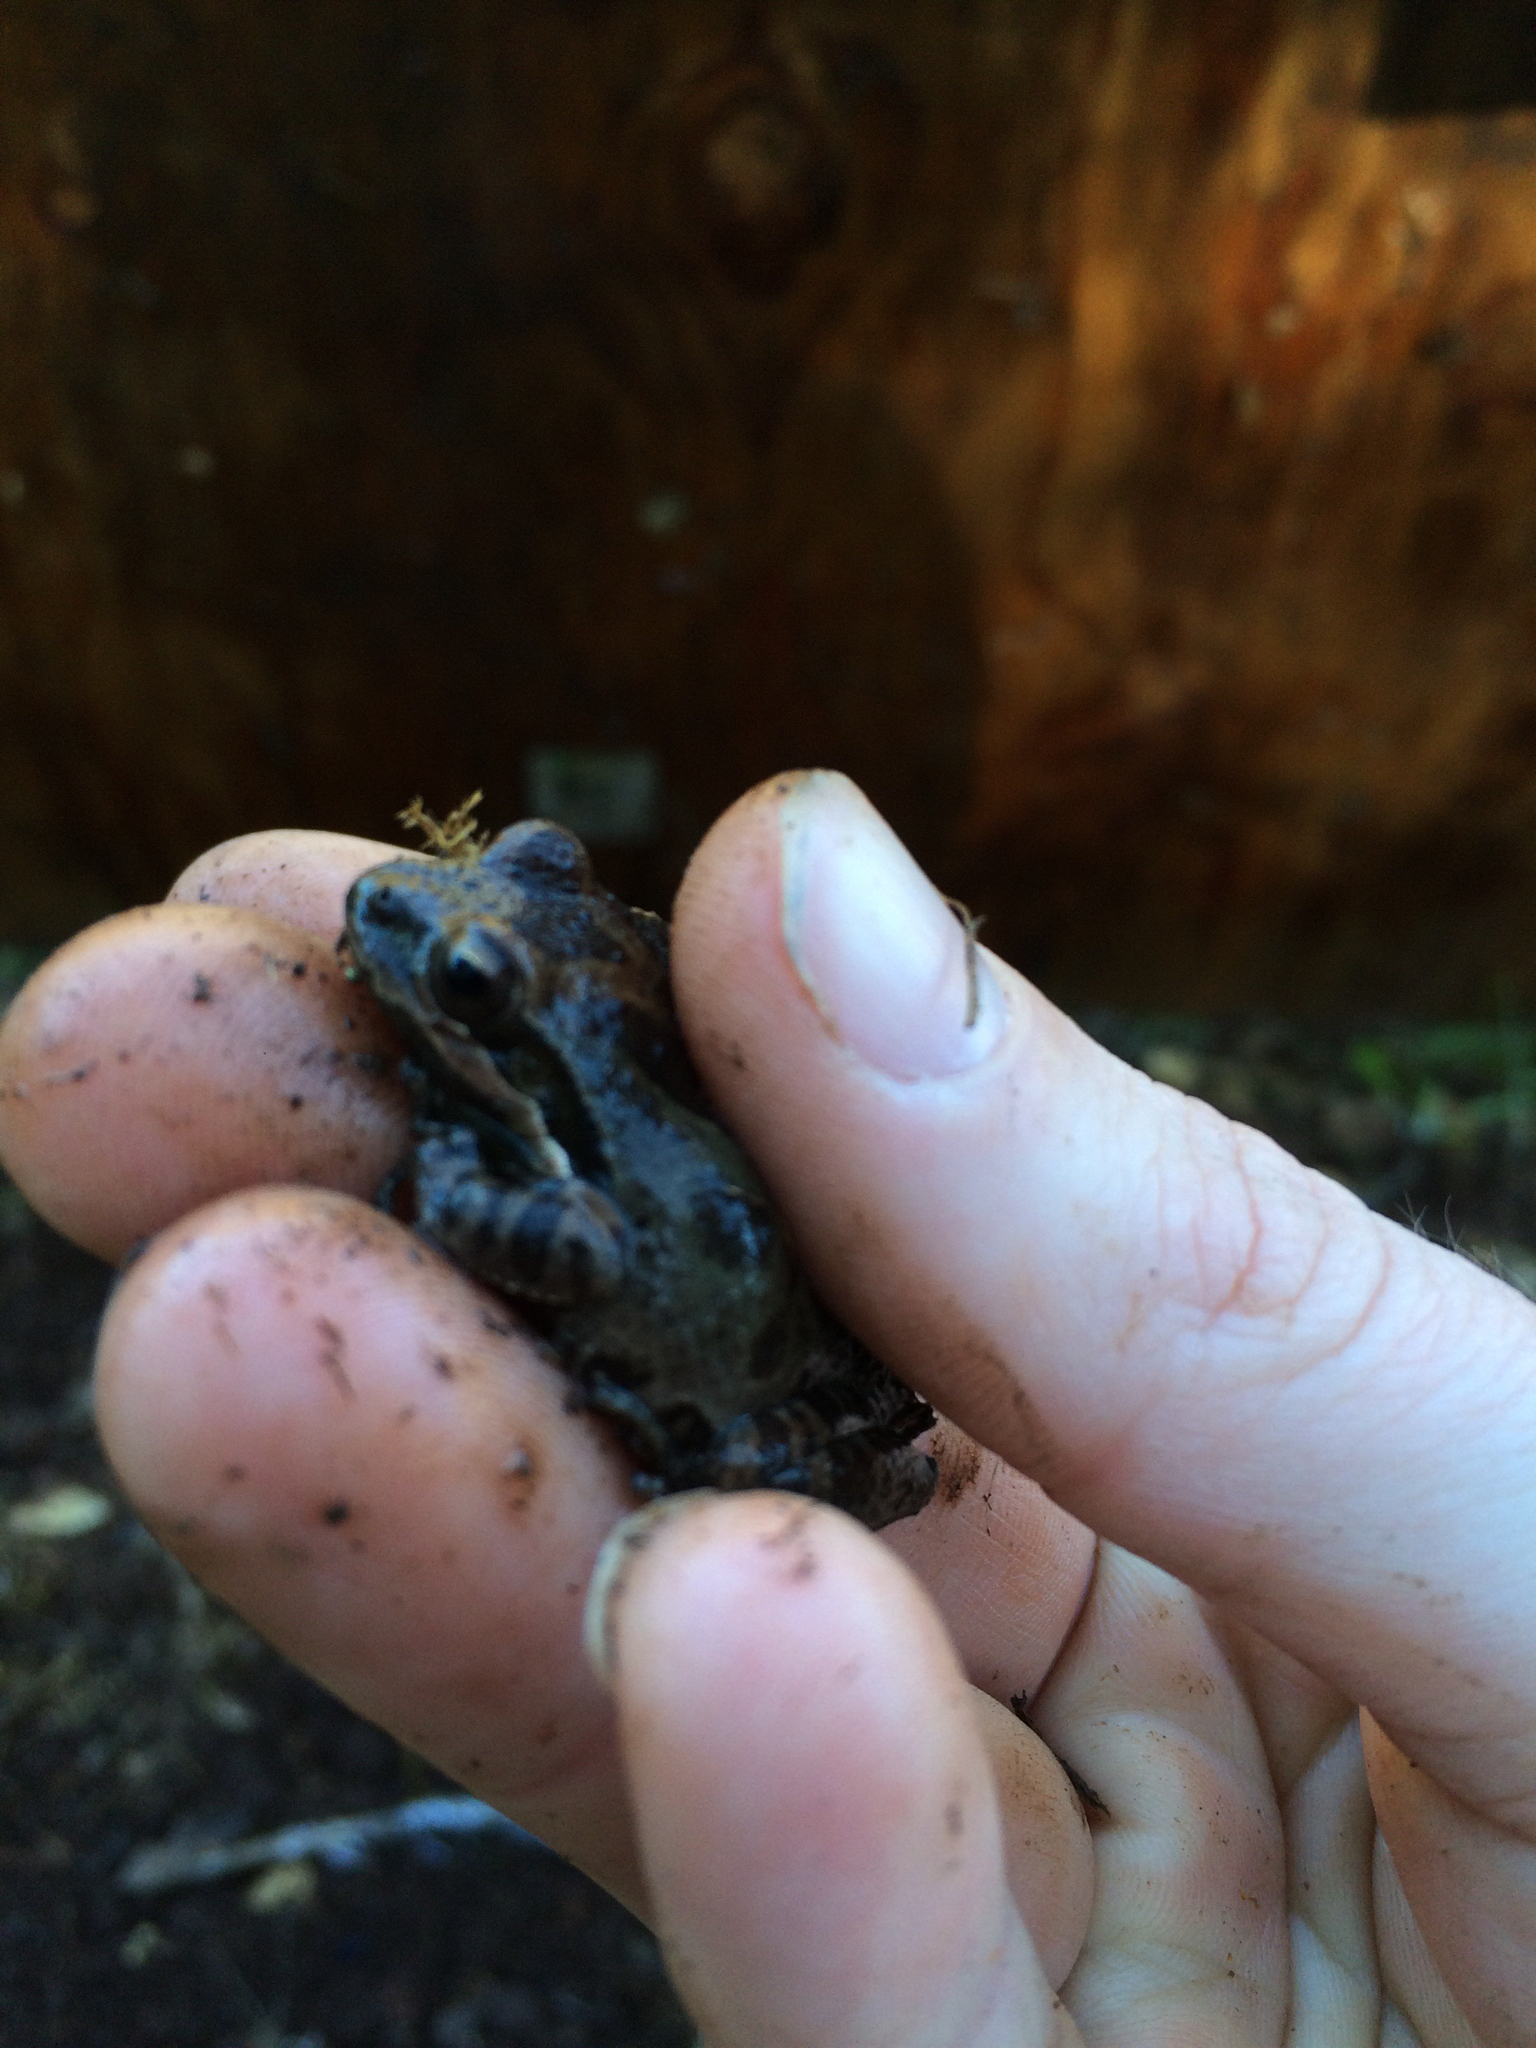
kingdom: Animalia
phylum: Chordata
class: Amphibia
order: Anura
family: Hylidae
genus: Pseudacris
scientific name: Pseudacris regilla
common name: Pacific chorus frog
